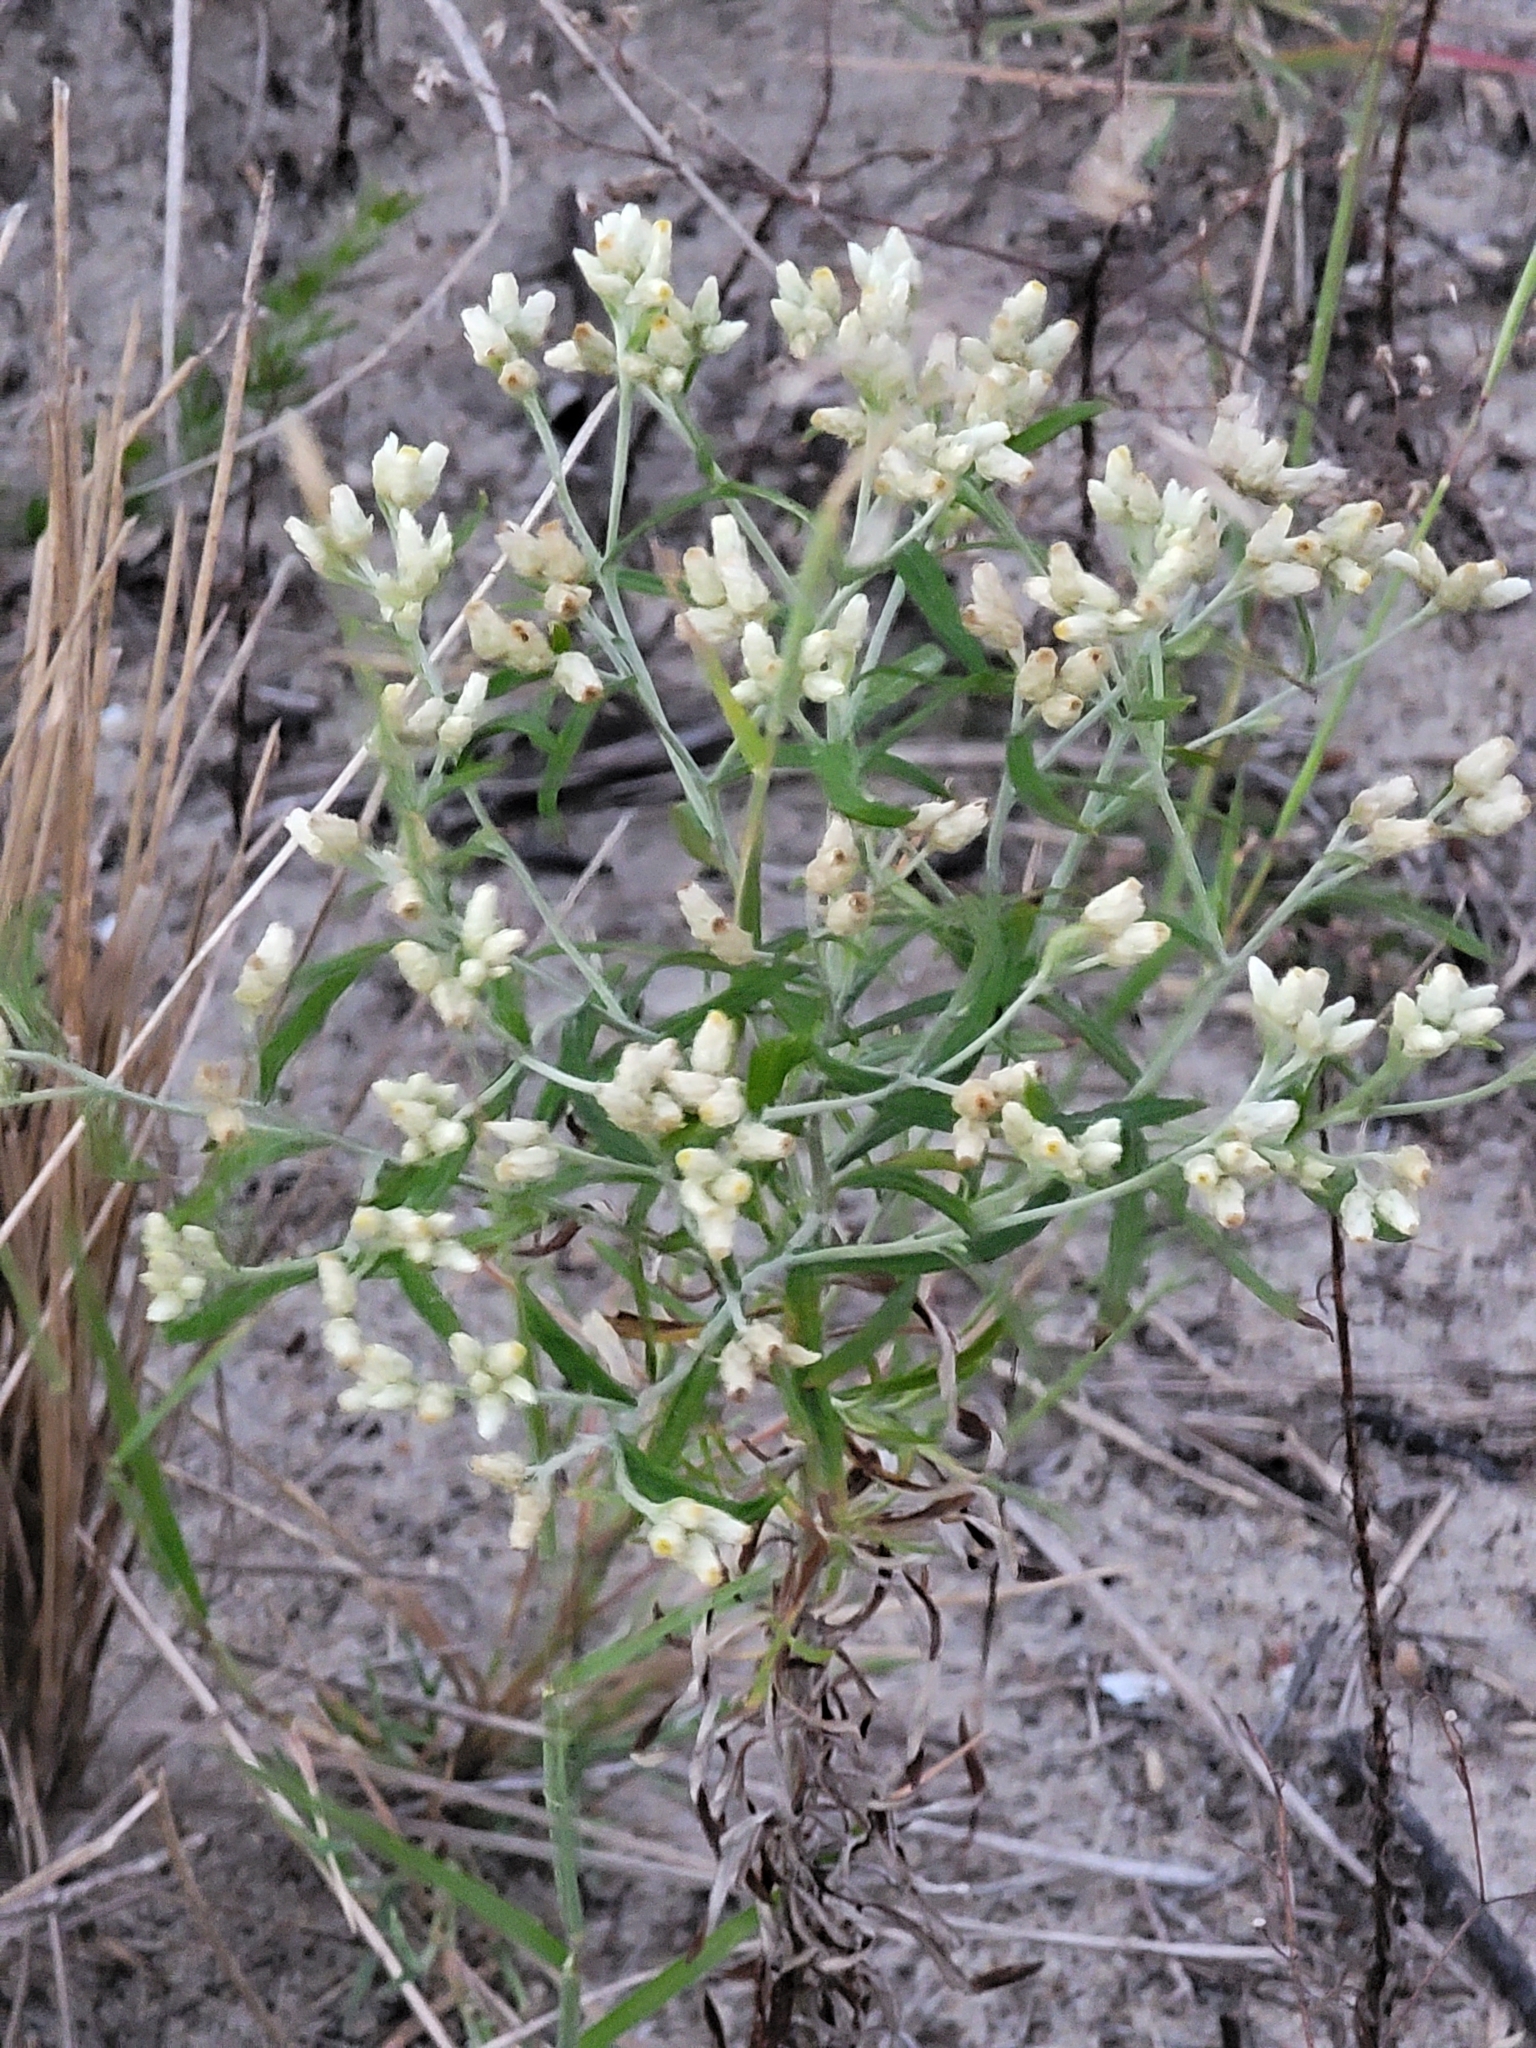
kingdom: Plantae
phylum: Tracheophyta
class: Magnoliopsida
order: Asterales
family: Asteraceae
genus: Pseudognaphalium
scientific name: Pseudognaphalium obtusifolium
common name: Eastern rabbit-tobacco
